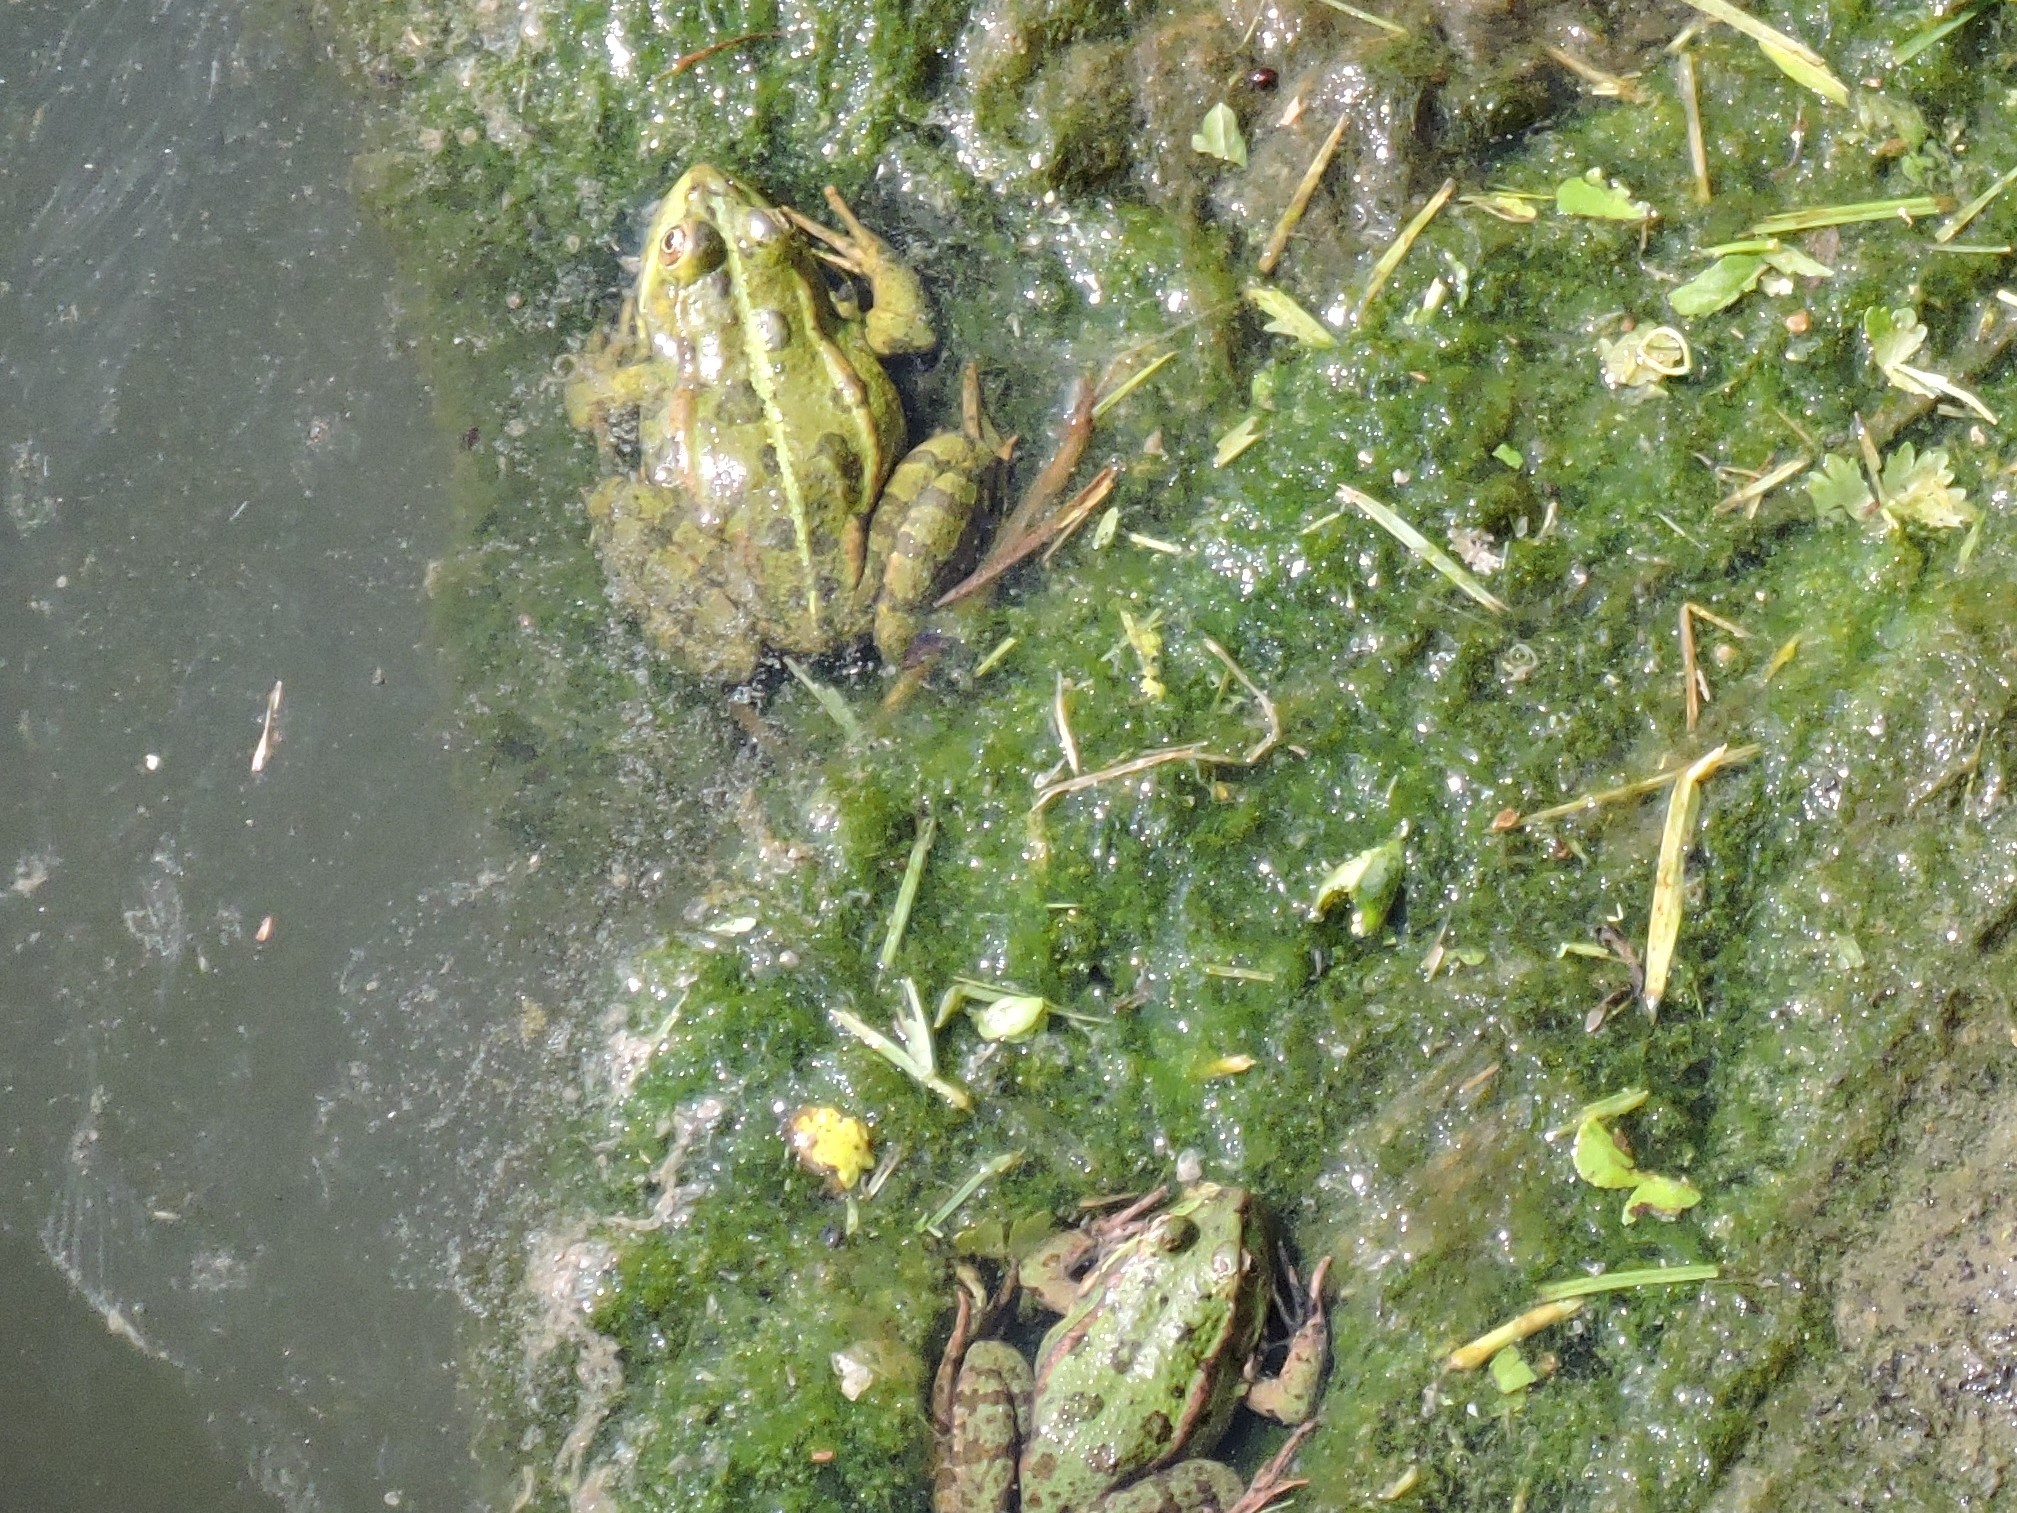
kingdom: Animalia
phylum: Chordata
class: Amphibia
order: Anura
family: Ranidae
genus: Pelophylax
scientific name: Pelophylax ridibundus
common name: Marsh frog
